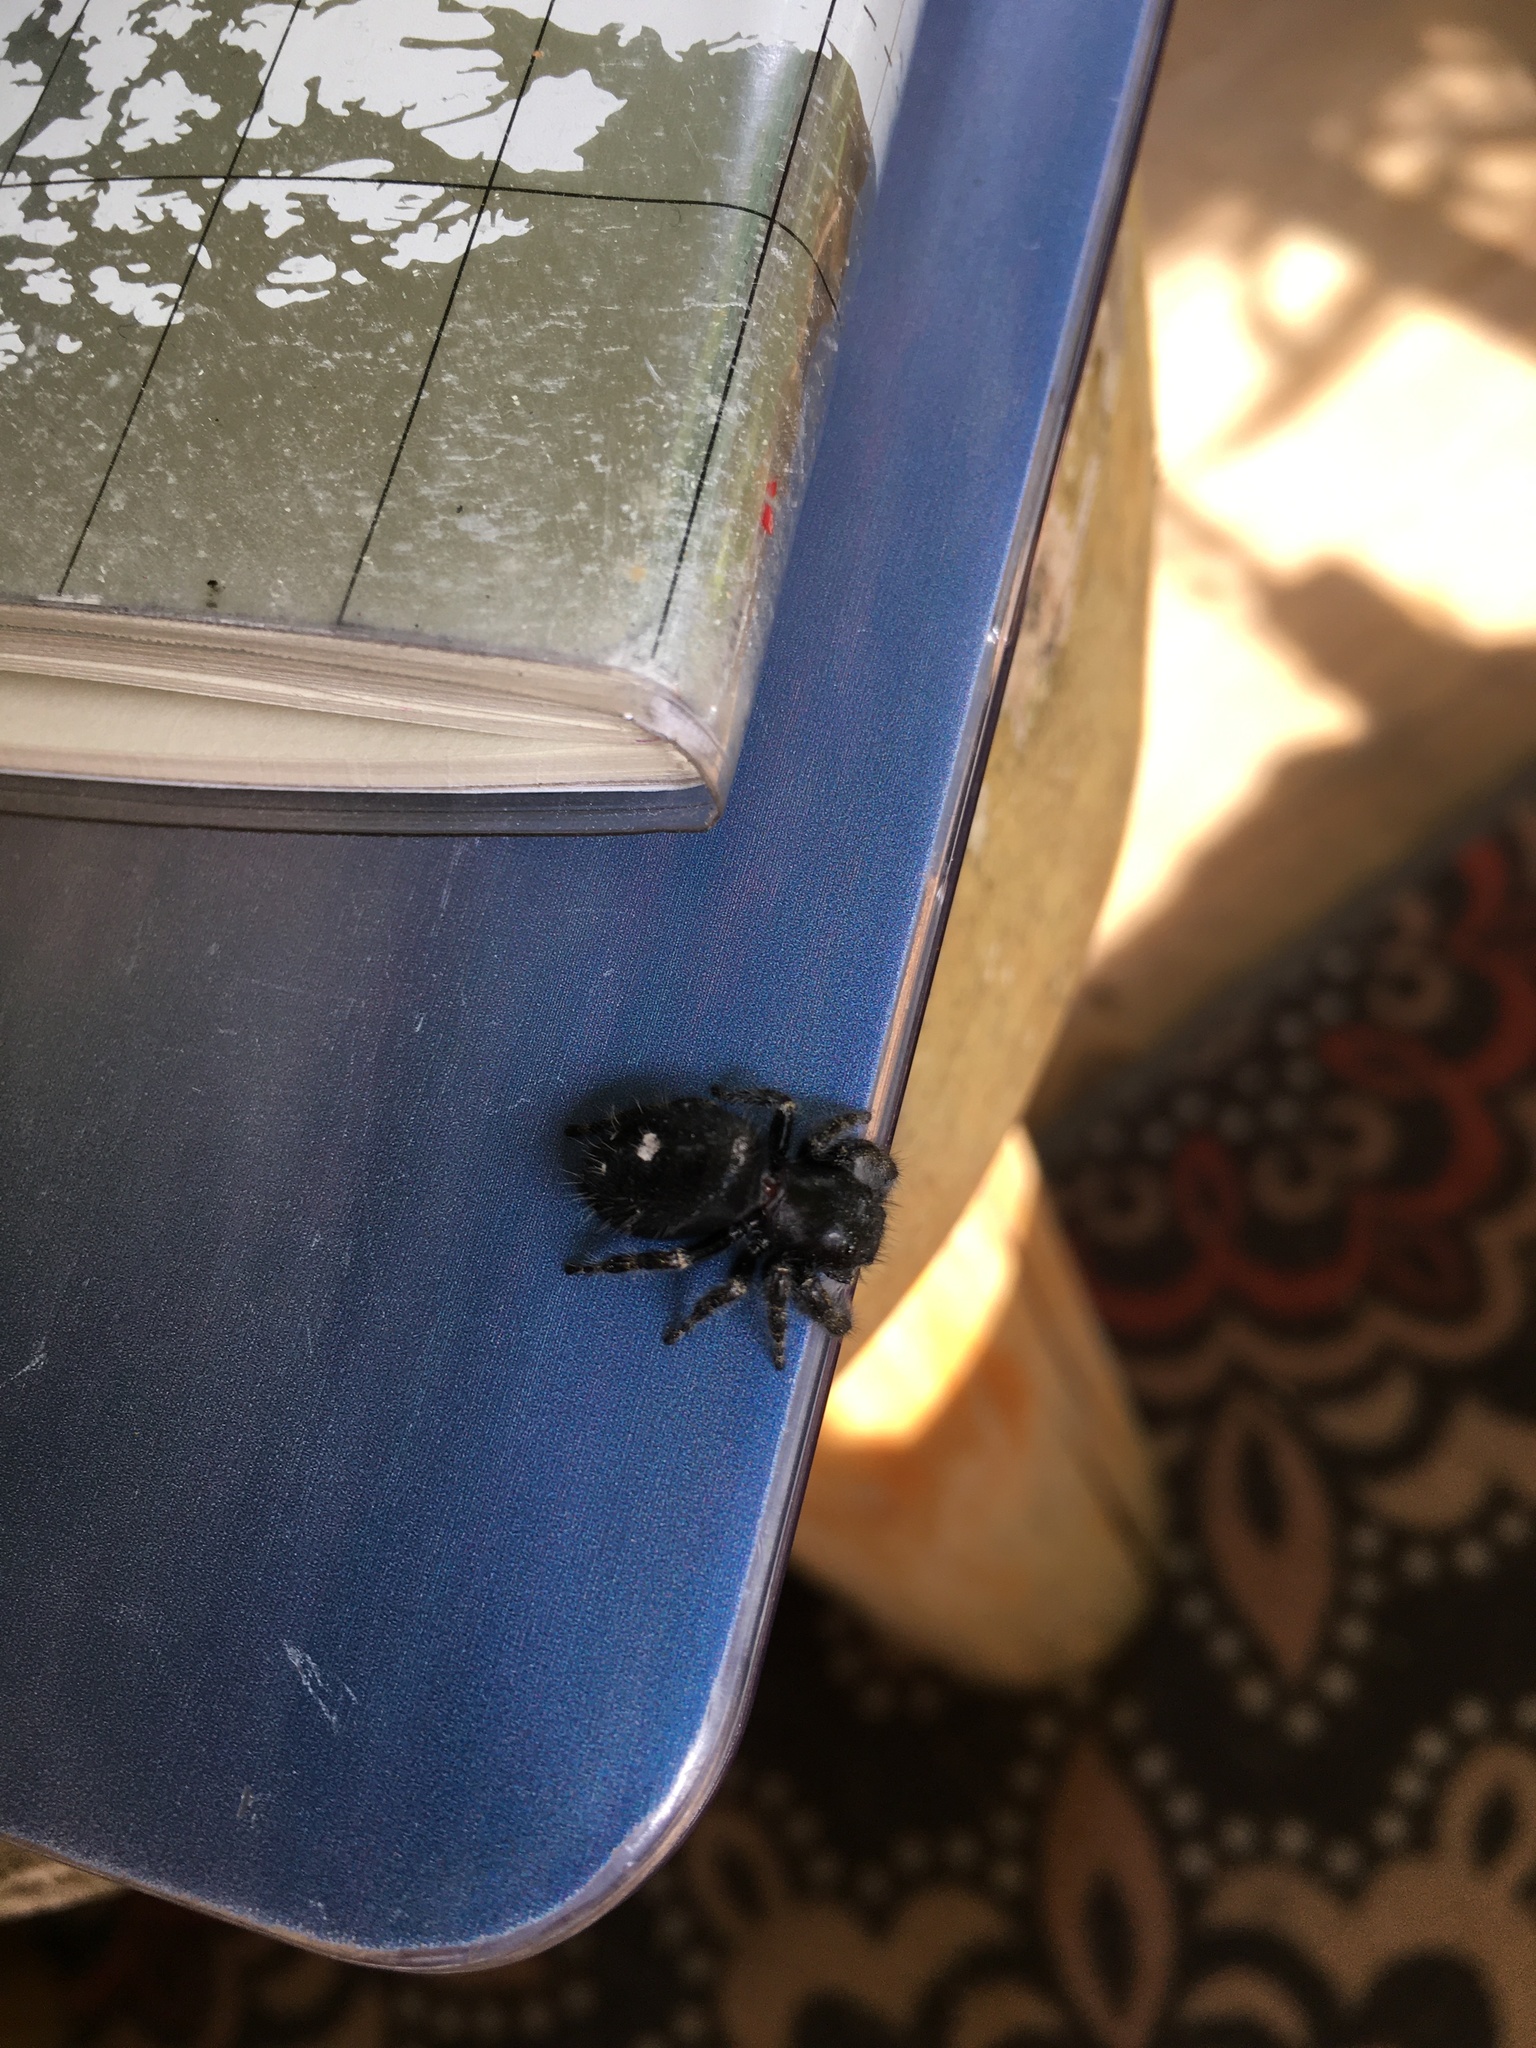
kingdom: Animalia
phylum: Arthropoda
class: Arachnida
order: Araneae
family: Salticidae
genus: Phidippus
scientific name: Phidippus audax
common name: Bold jumper
